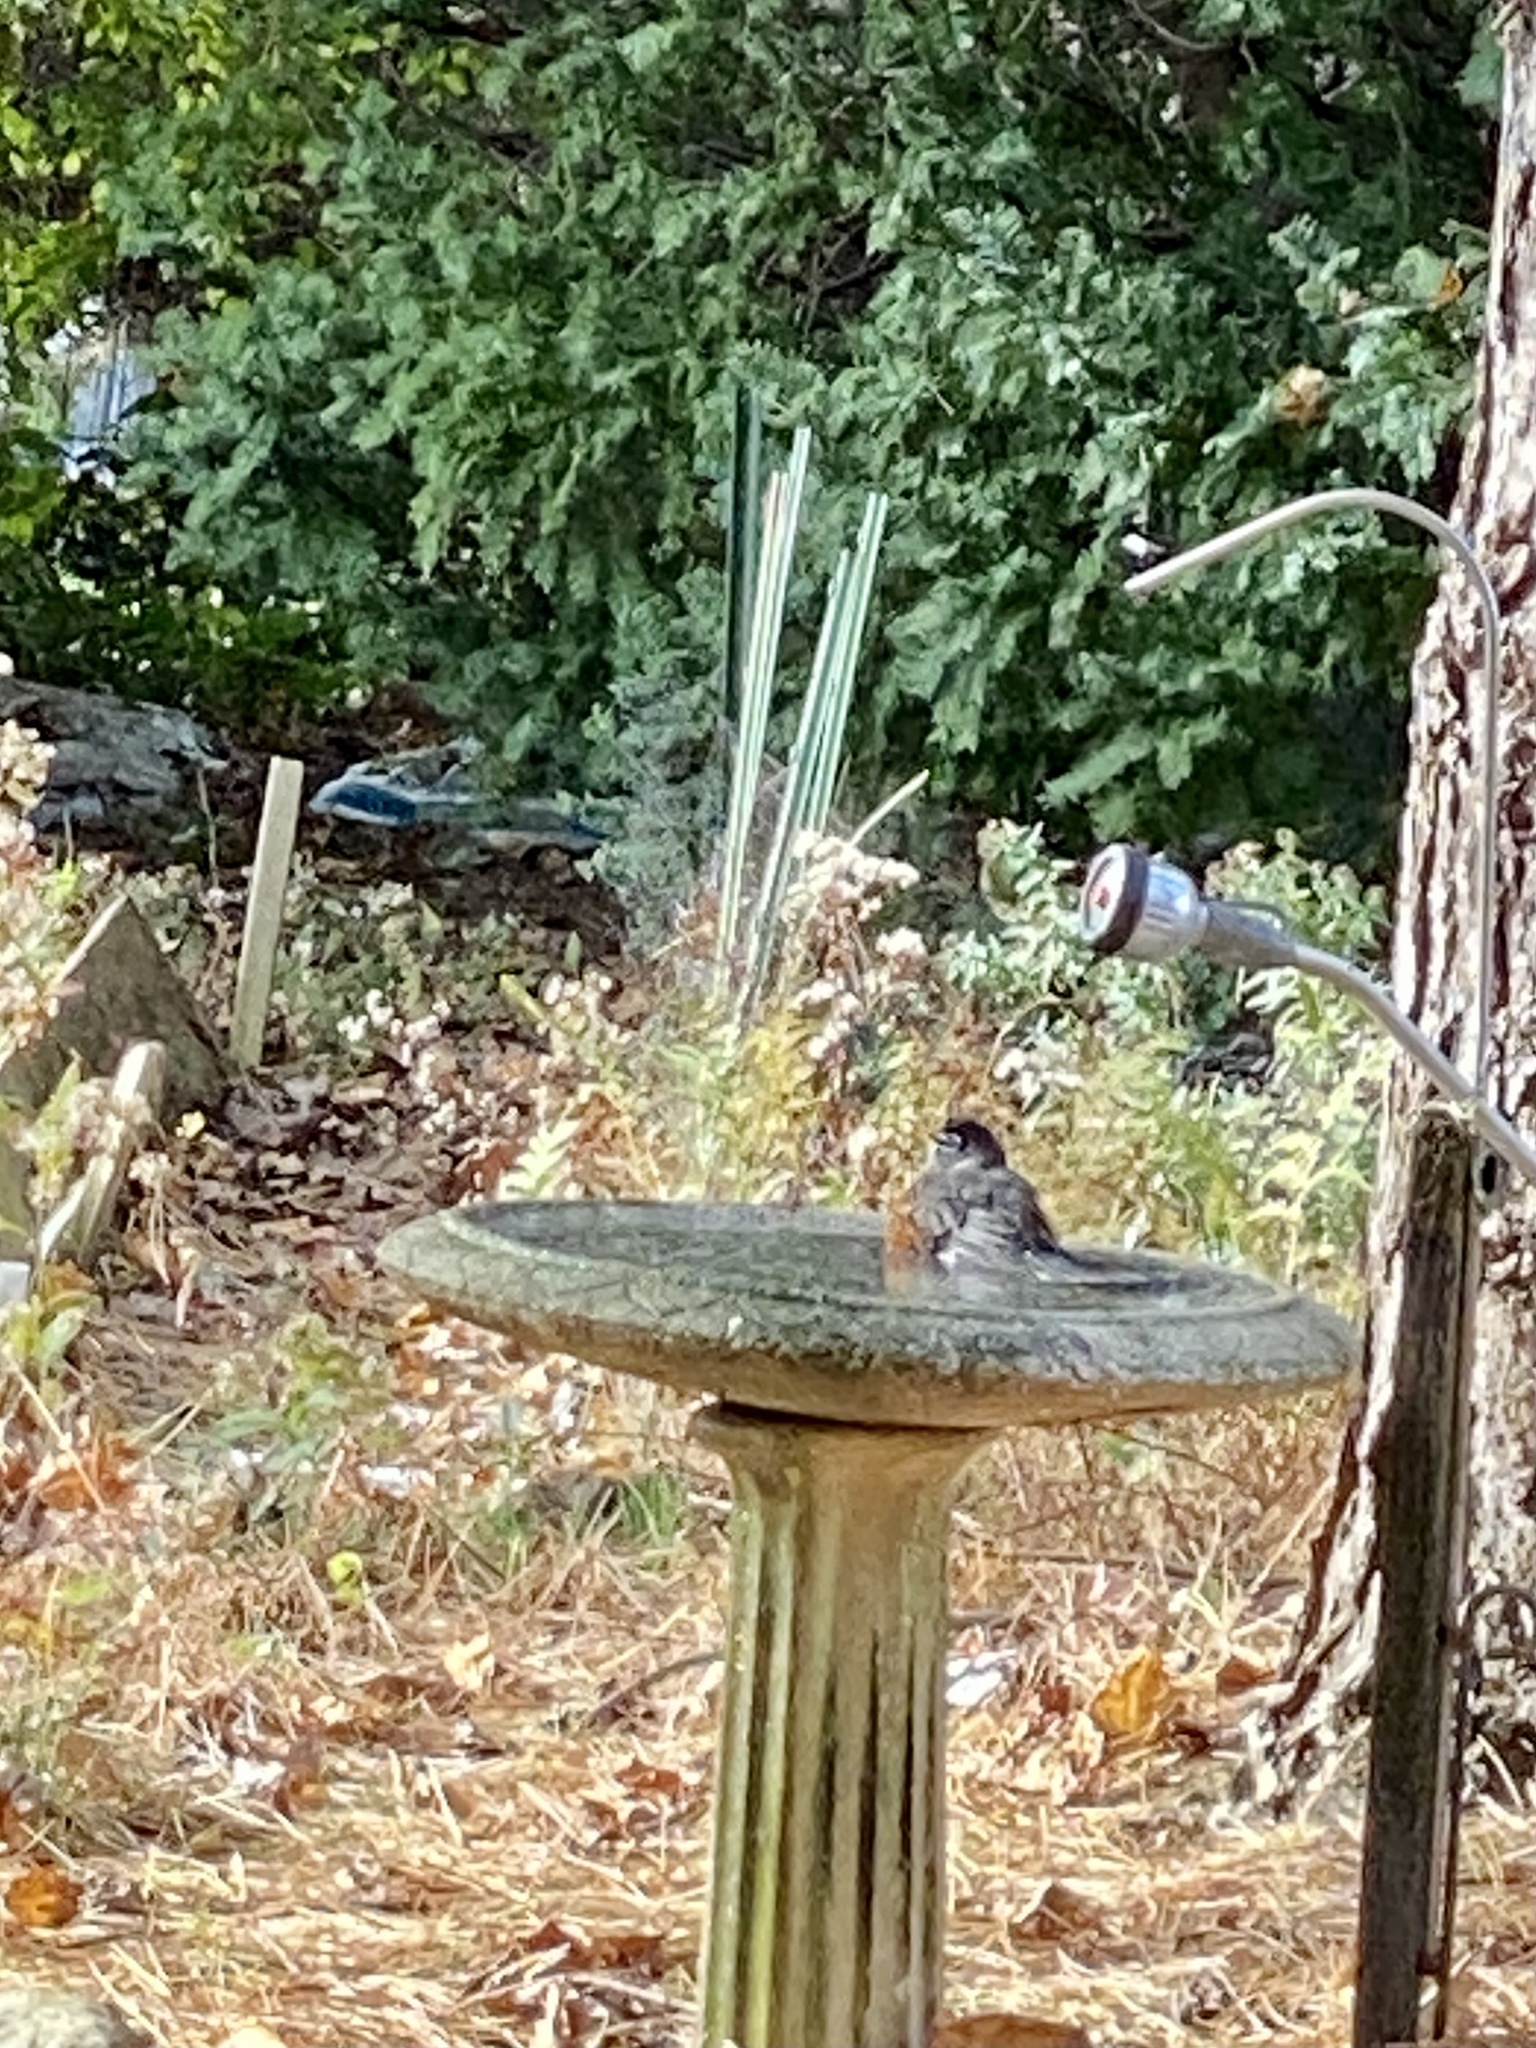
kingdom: Animalia
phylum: Chordata
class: Aves
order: Passeriformes
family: Turdidae
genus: Turdus
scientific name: Turdus migratorius
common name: American robin
